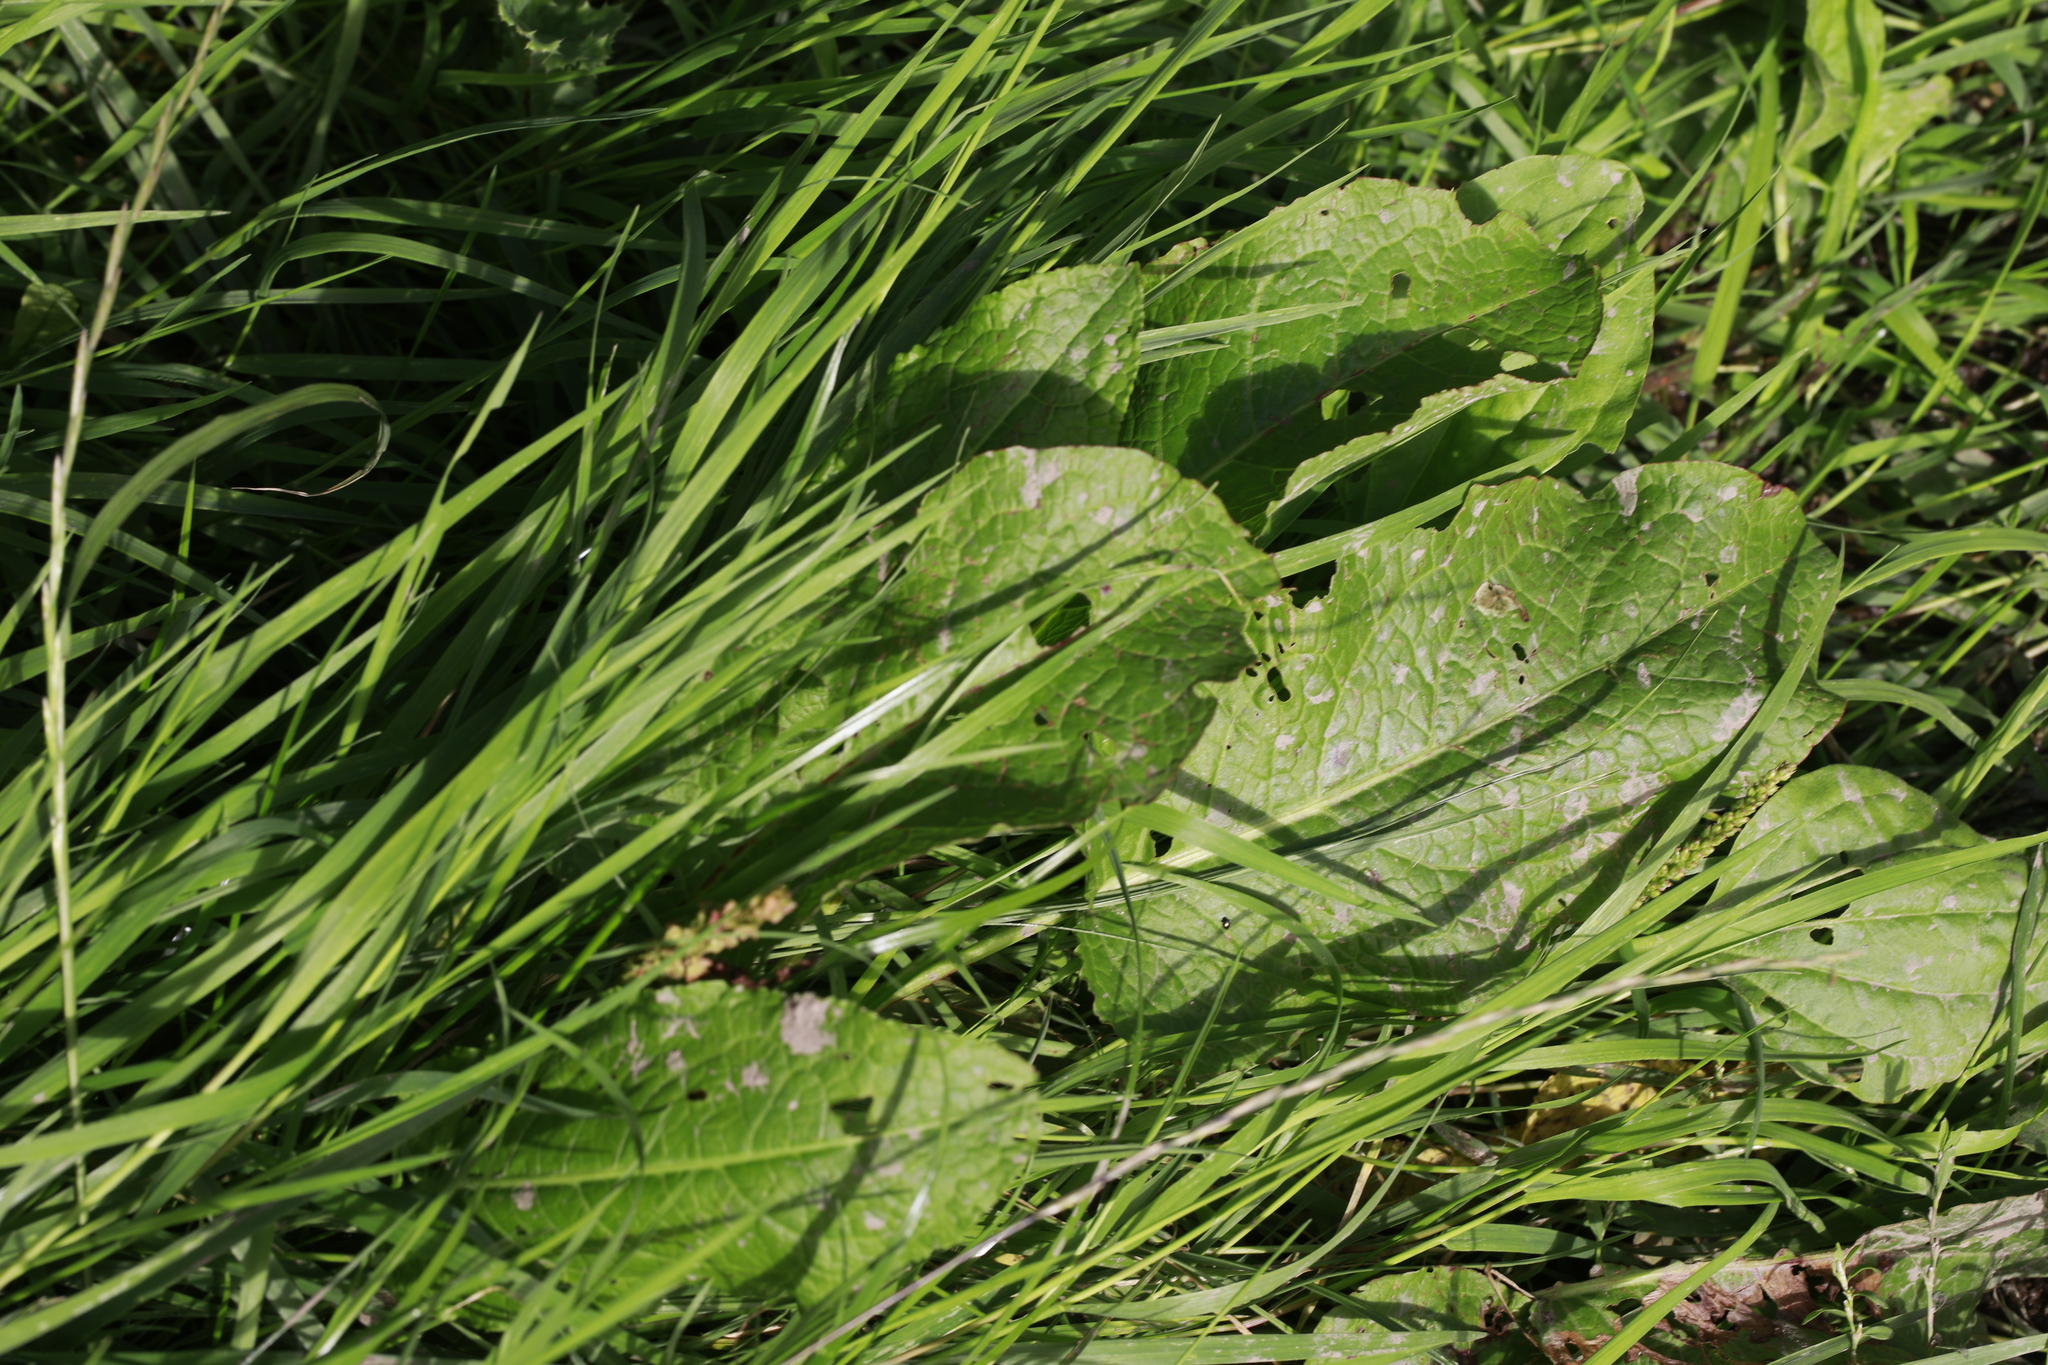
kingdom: Plantae
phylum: Tracheophyta
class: Magnoliopsida
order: Caryophyllales
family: Polygonaceae
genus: Rumex
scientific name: Rumex obtusifolius
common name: Bitter dock
